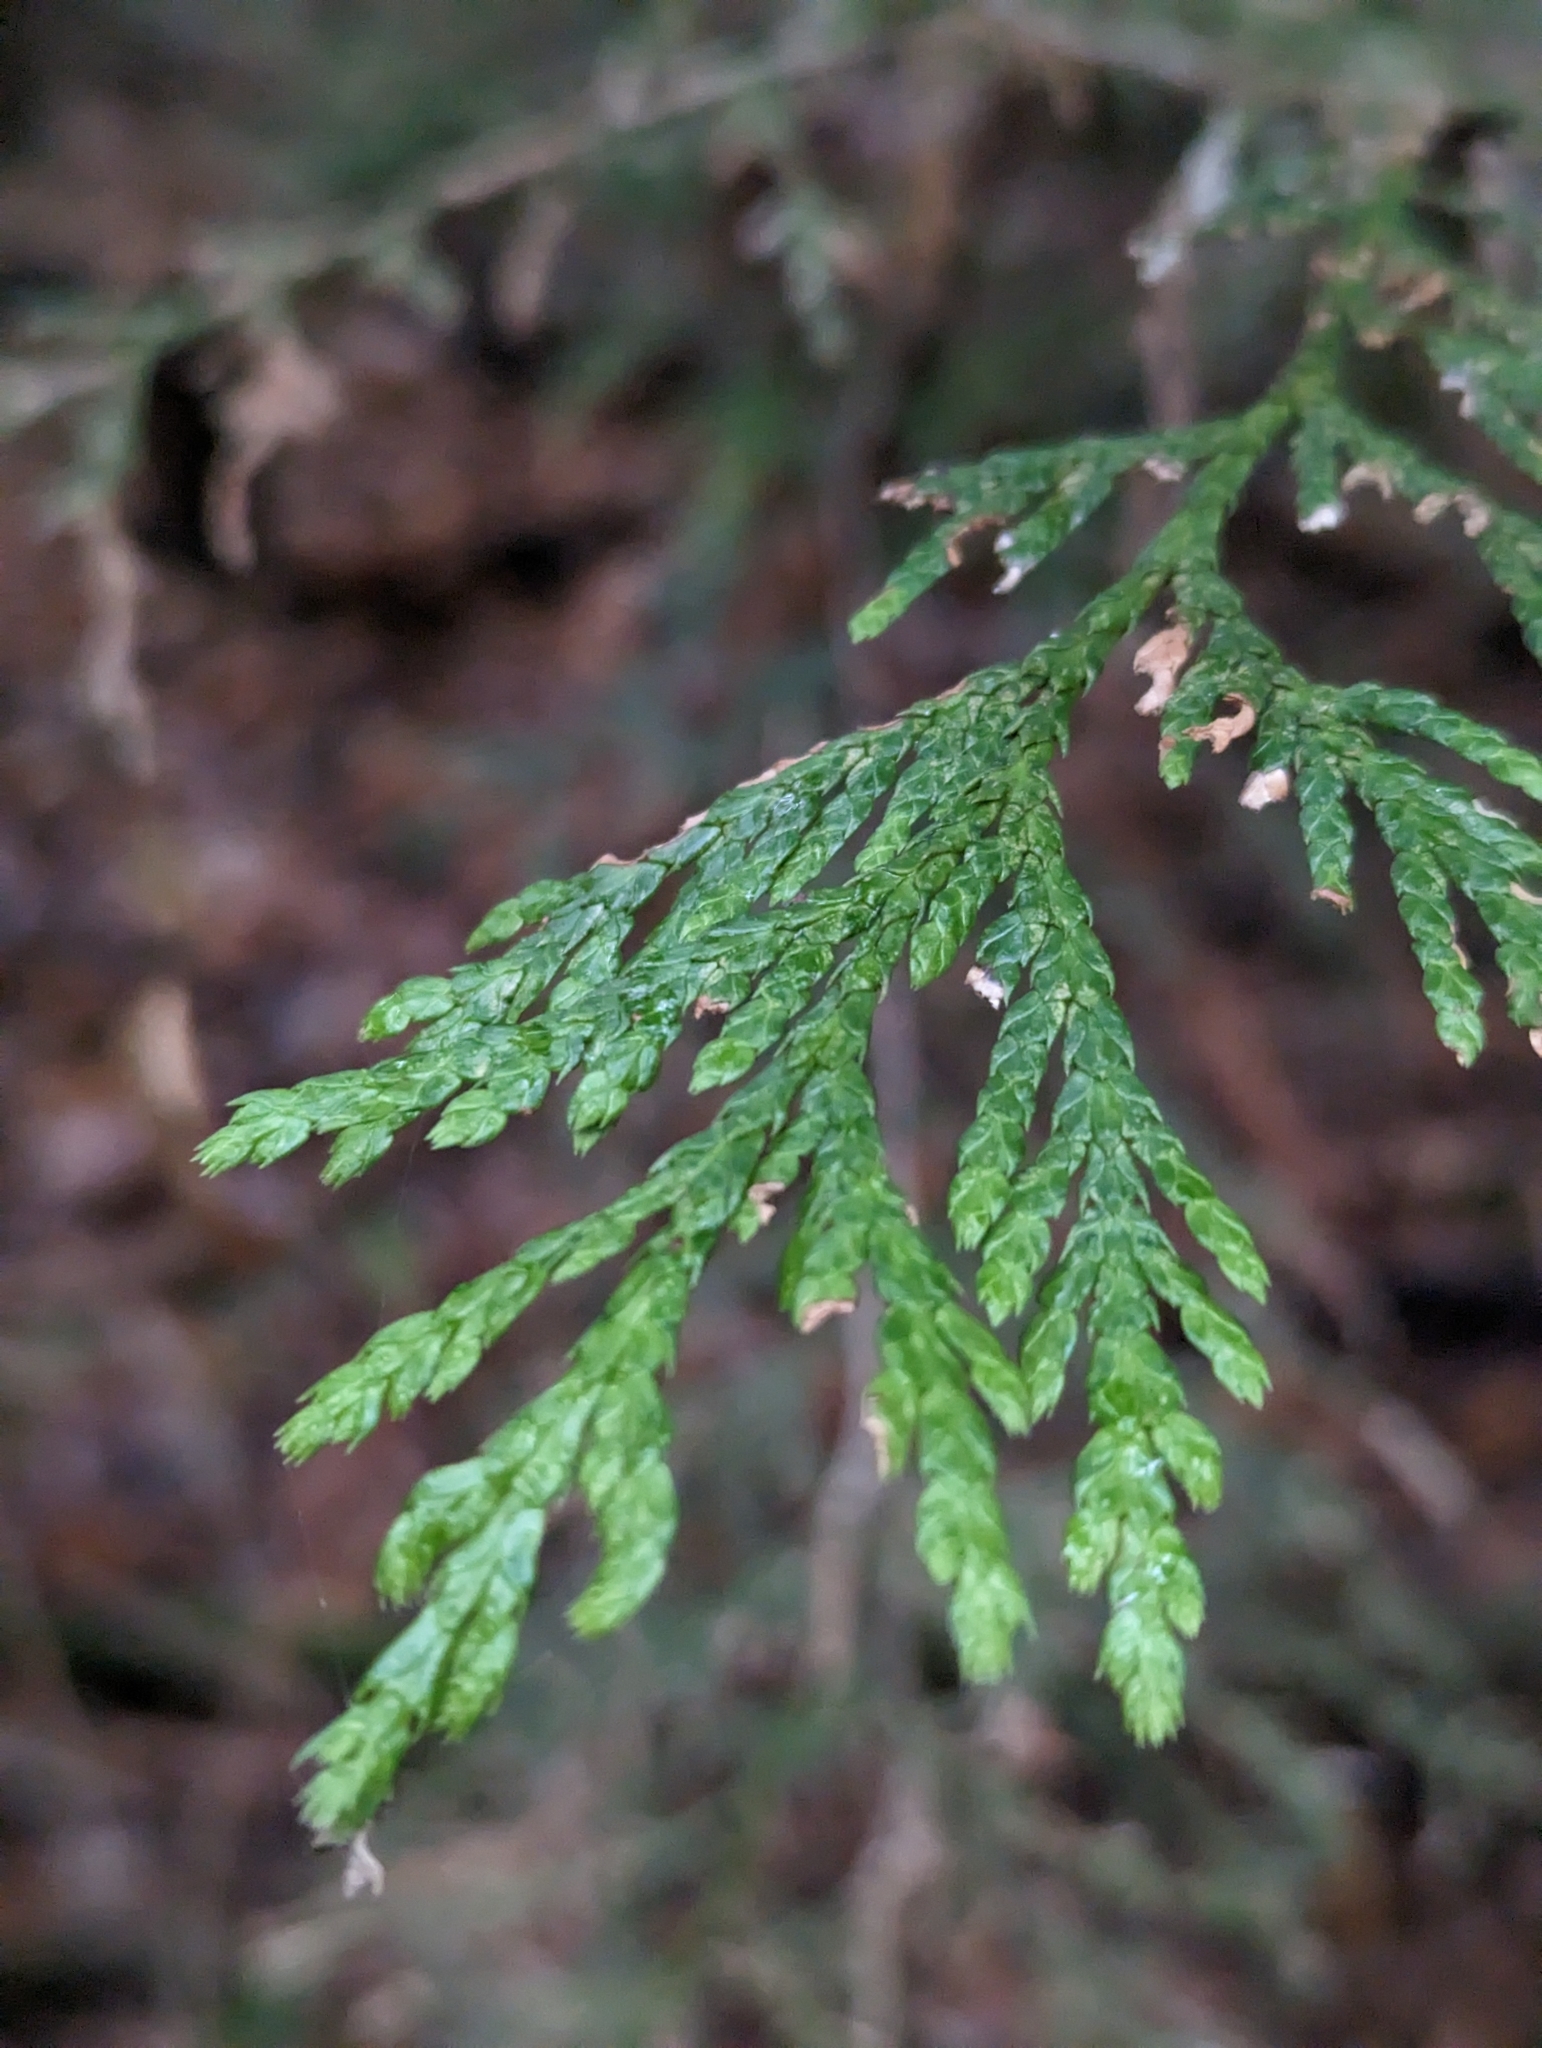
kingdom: Plantae
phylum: Tracheophyta
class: Pinopsida
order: Pinales
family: Cupressaceae
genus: Thuja
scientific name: Thuja plicata
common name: Western red-cedar
